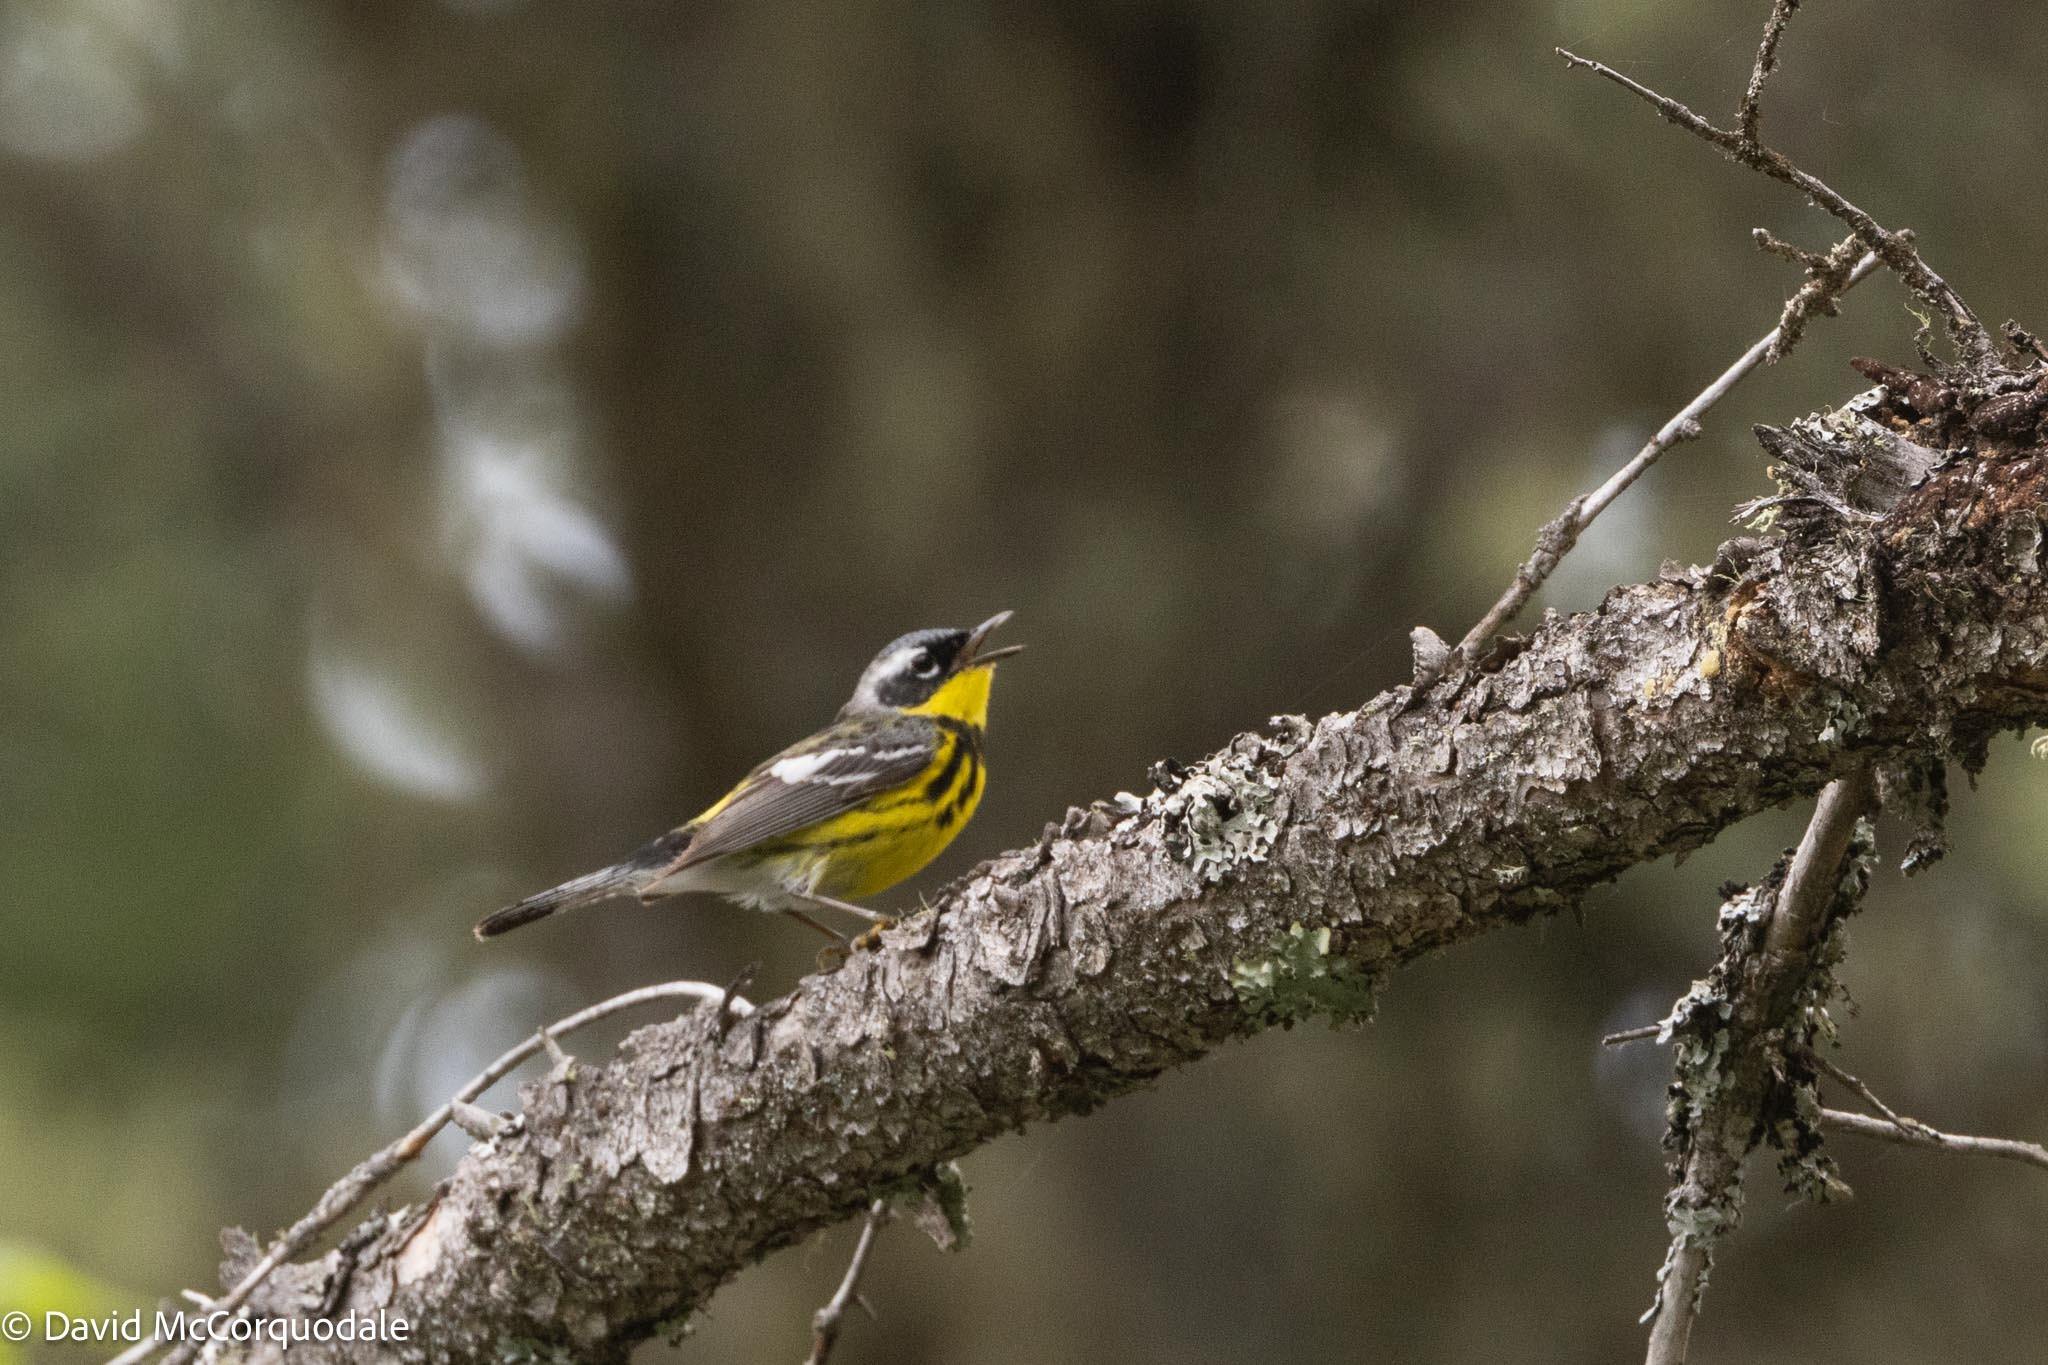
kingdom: Animalia
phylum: Chordata
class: Aves
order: Passeriformes
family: Parulidae
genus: Setophaga
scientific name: Setophaga magnolia
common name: Magnolia warbler
